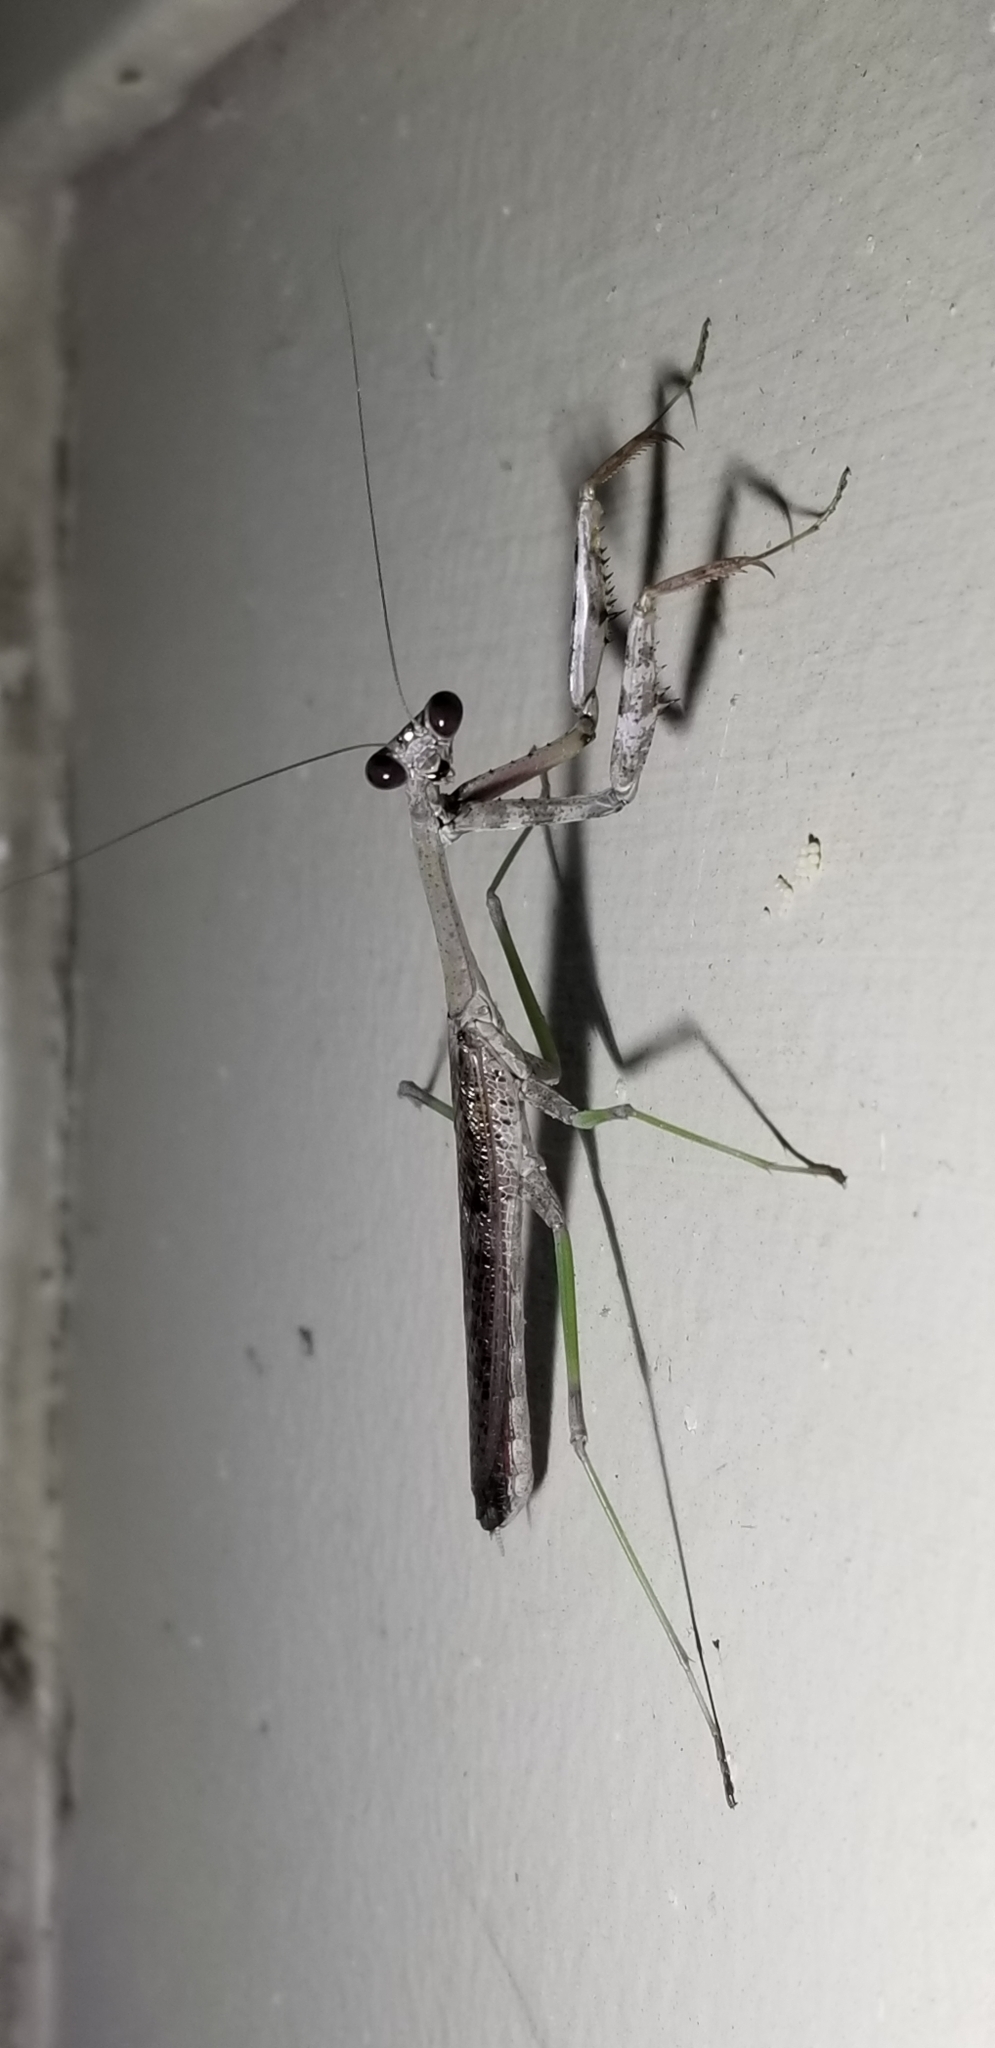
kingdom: Animalia
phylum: Arthropoda
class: Insecta
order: Mantodea
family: Mantidae
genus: Stagmomantis
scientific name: Stagmomantis carolina
